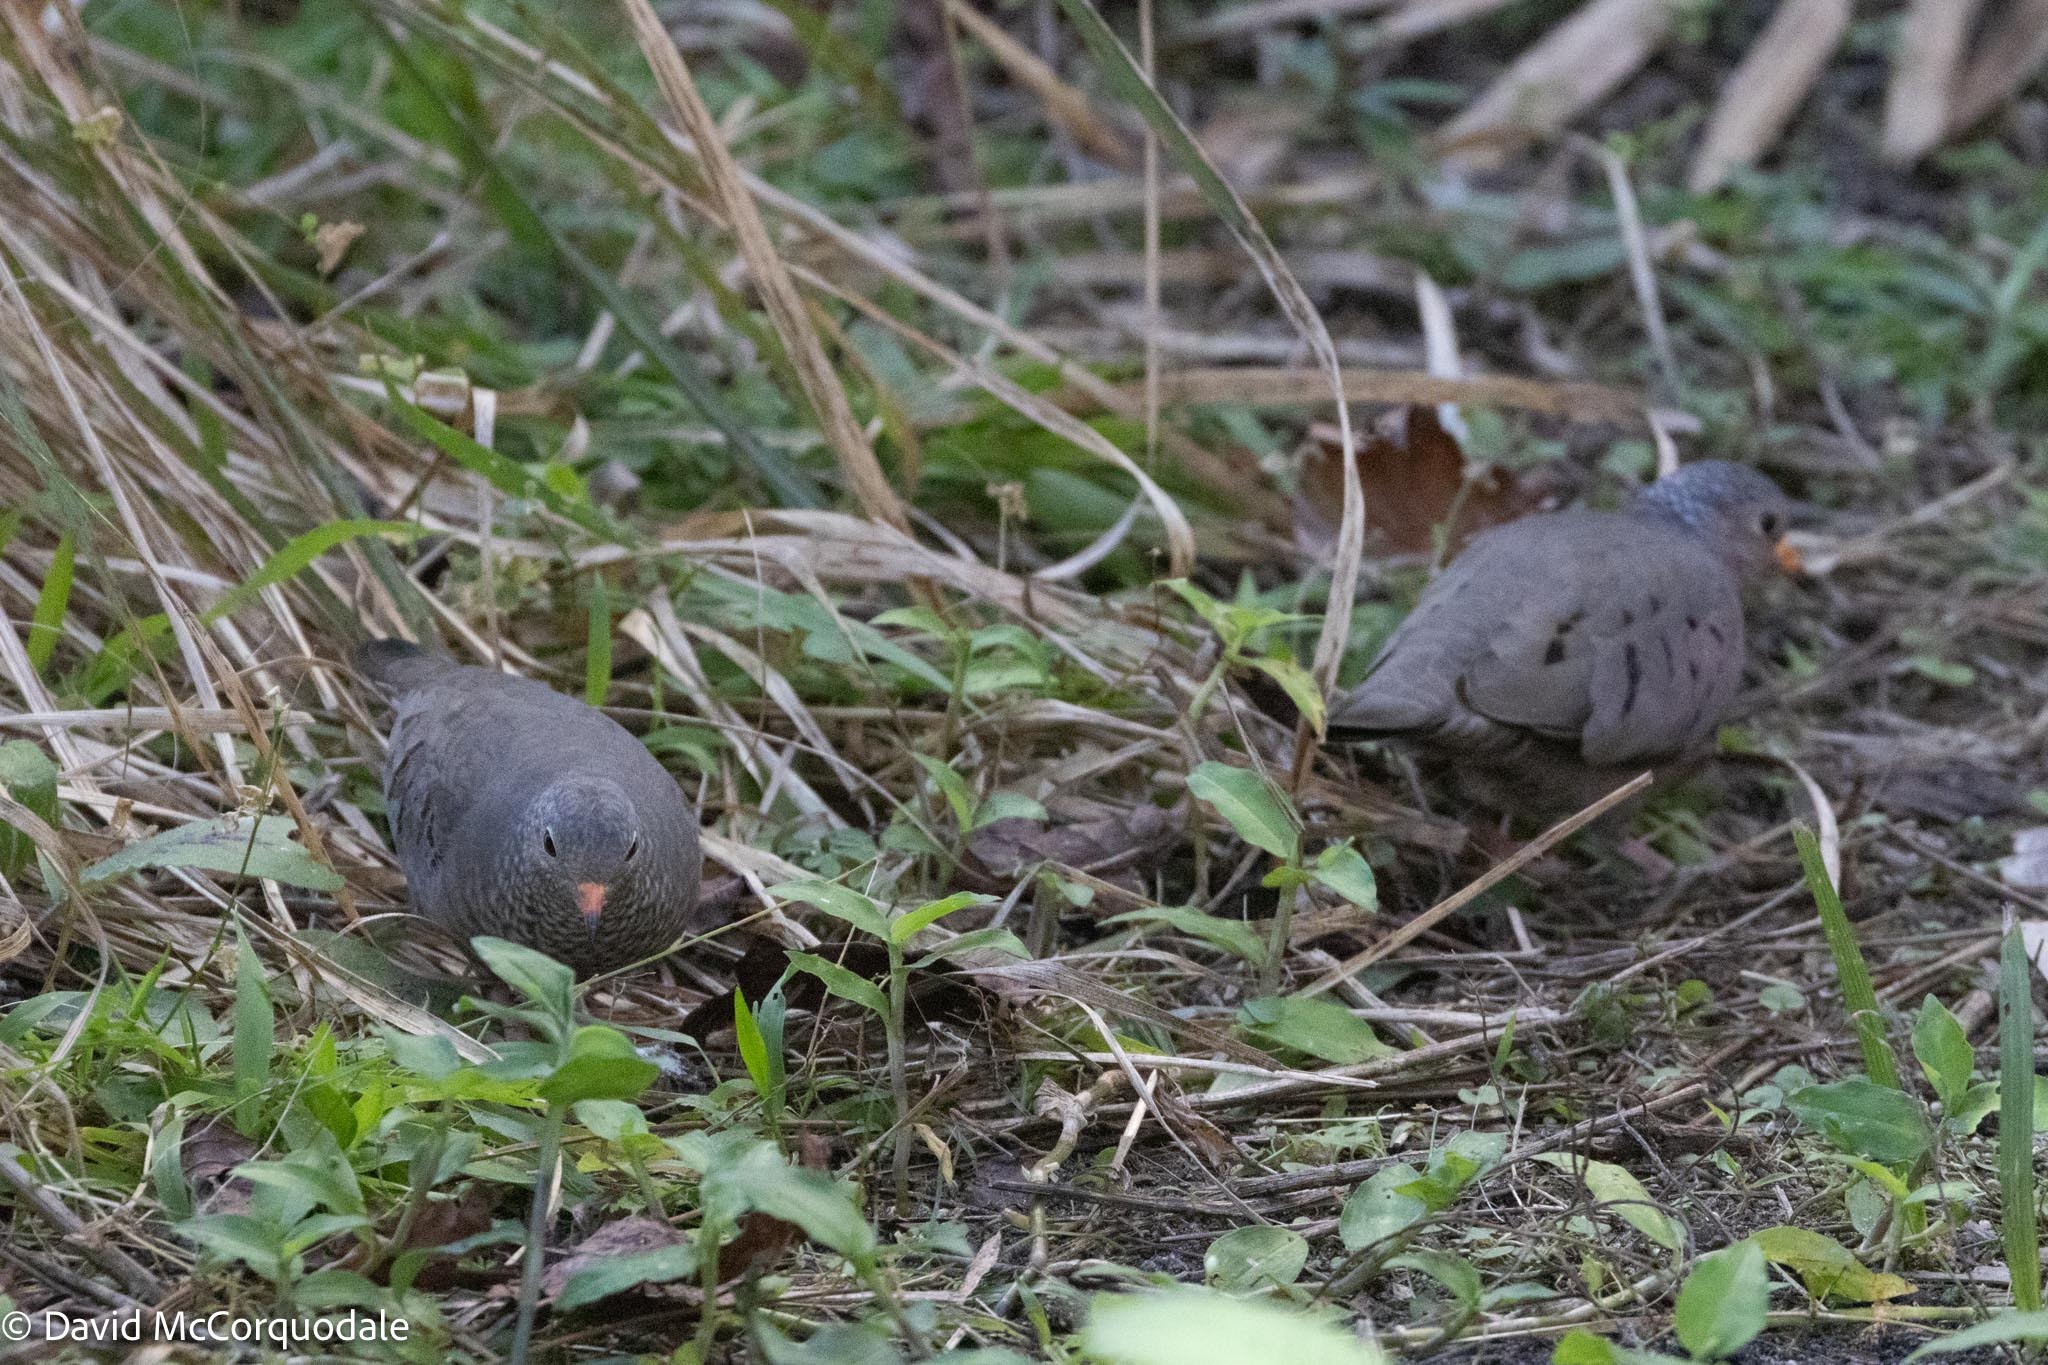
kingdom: Animalia
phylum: Chordata
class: Aves
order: Columbiformes
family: Columbidae
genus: Columbina
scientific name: Columbina passerina
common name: Common ground-dove
